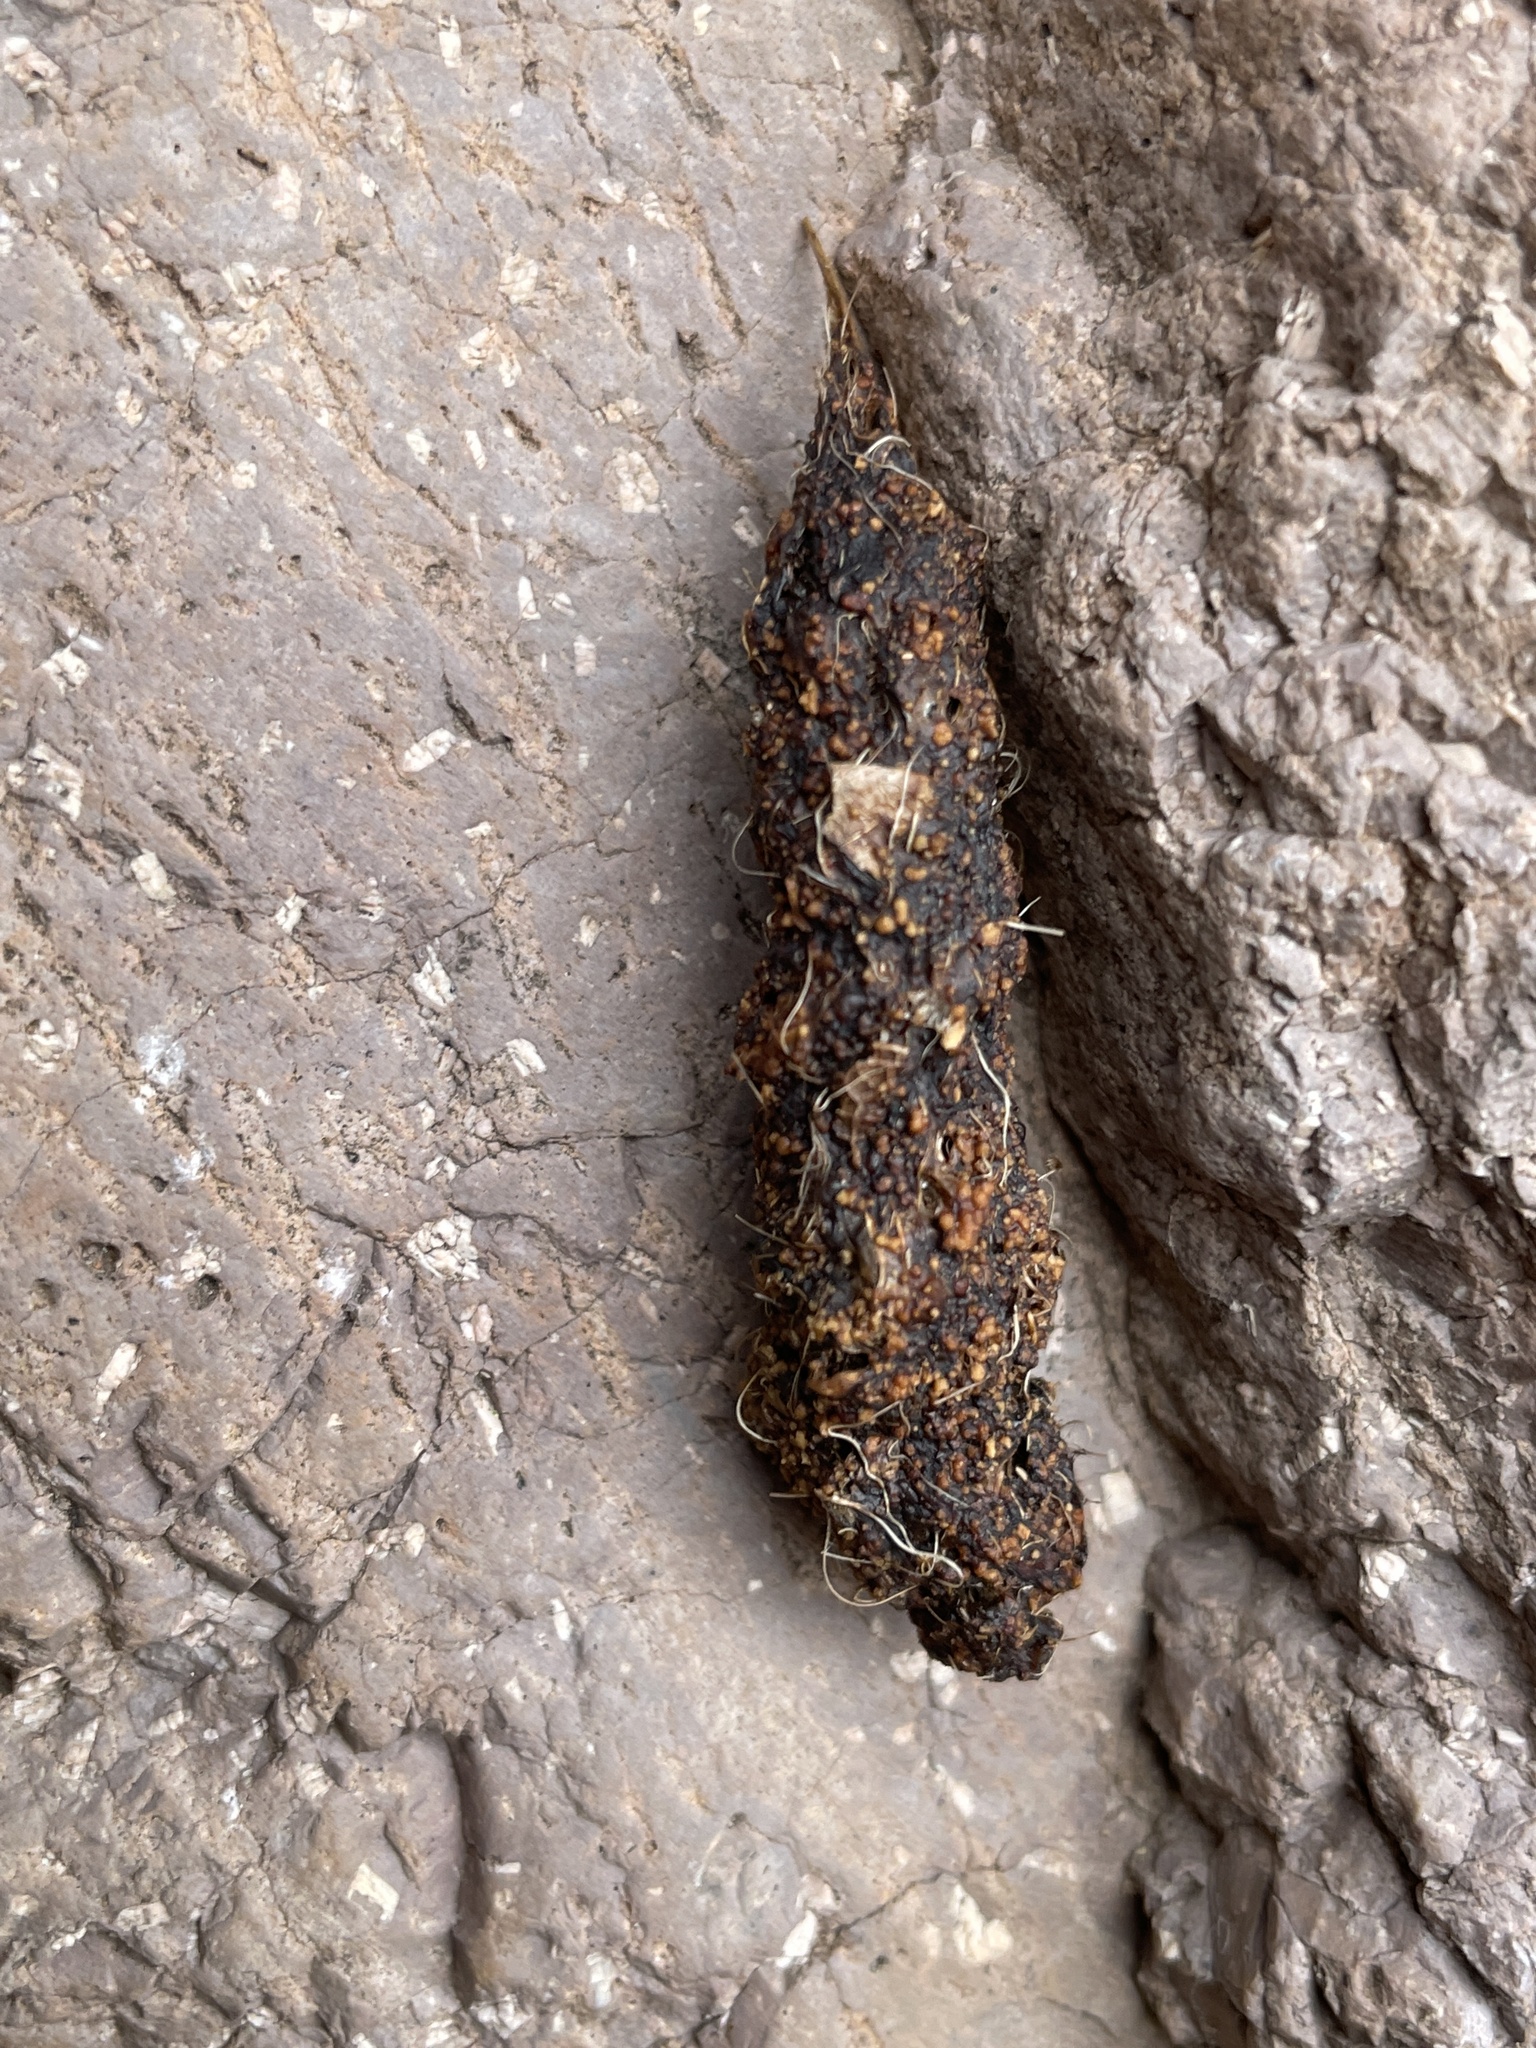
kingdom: Animalia
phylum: Chordata
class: Mammalia
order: Carnivora
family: Canidae
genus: Urocyon
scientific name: Urocyon cinereoargenteus
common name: Gray fox
